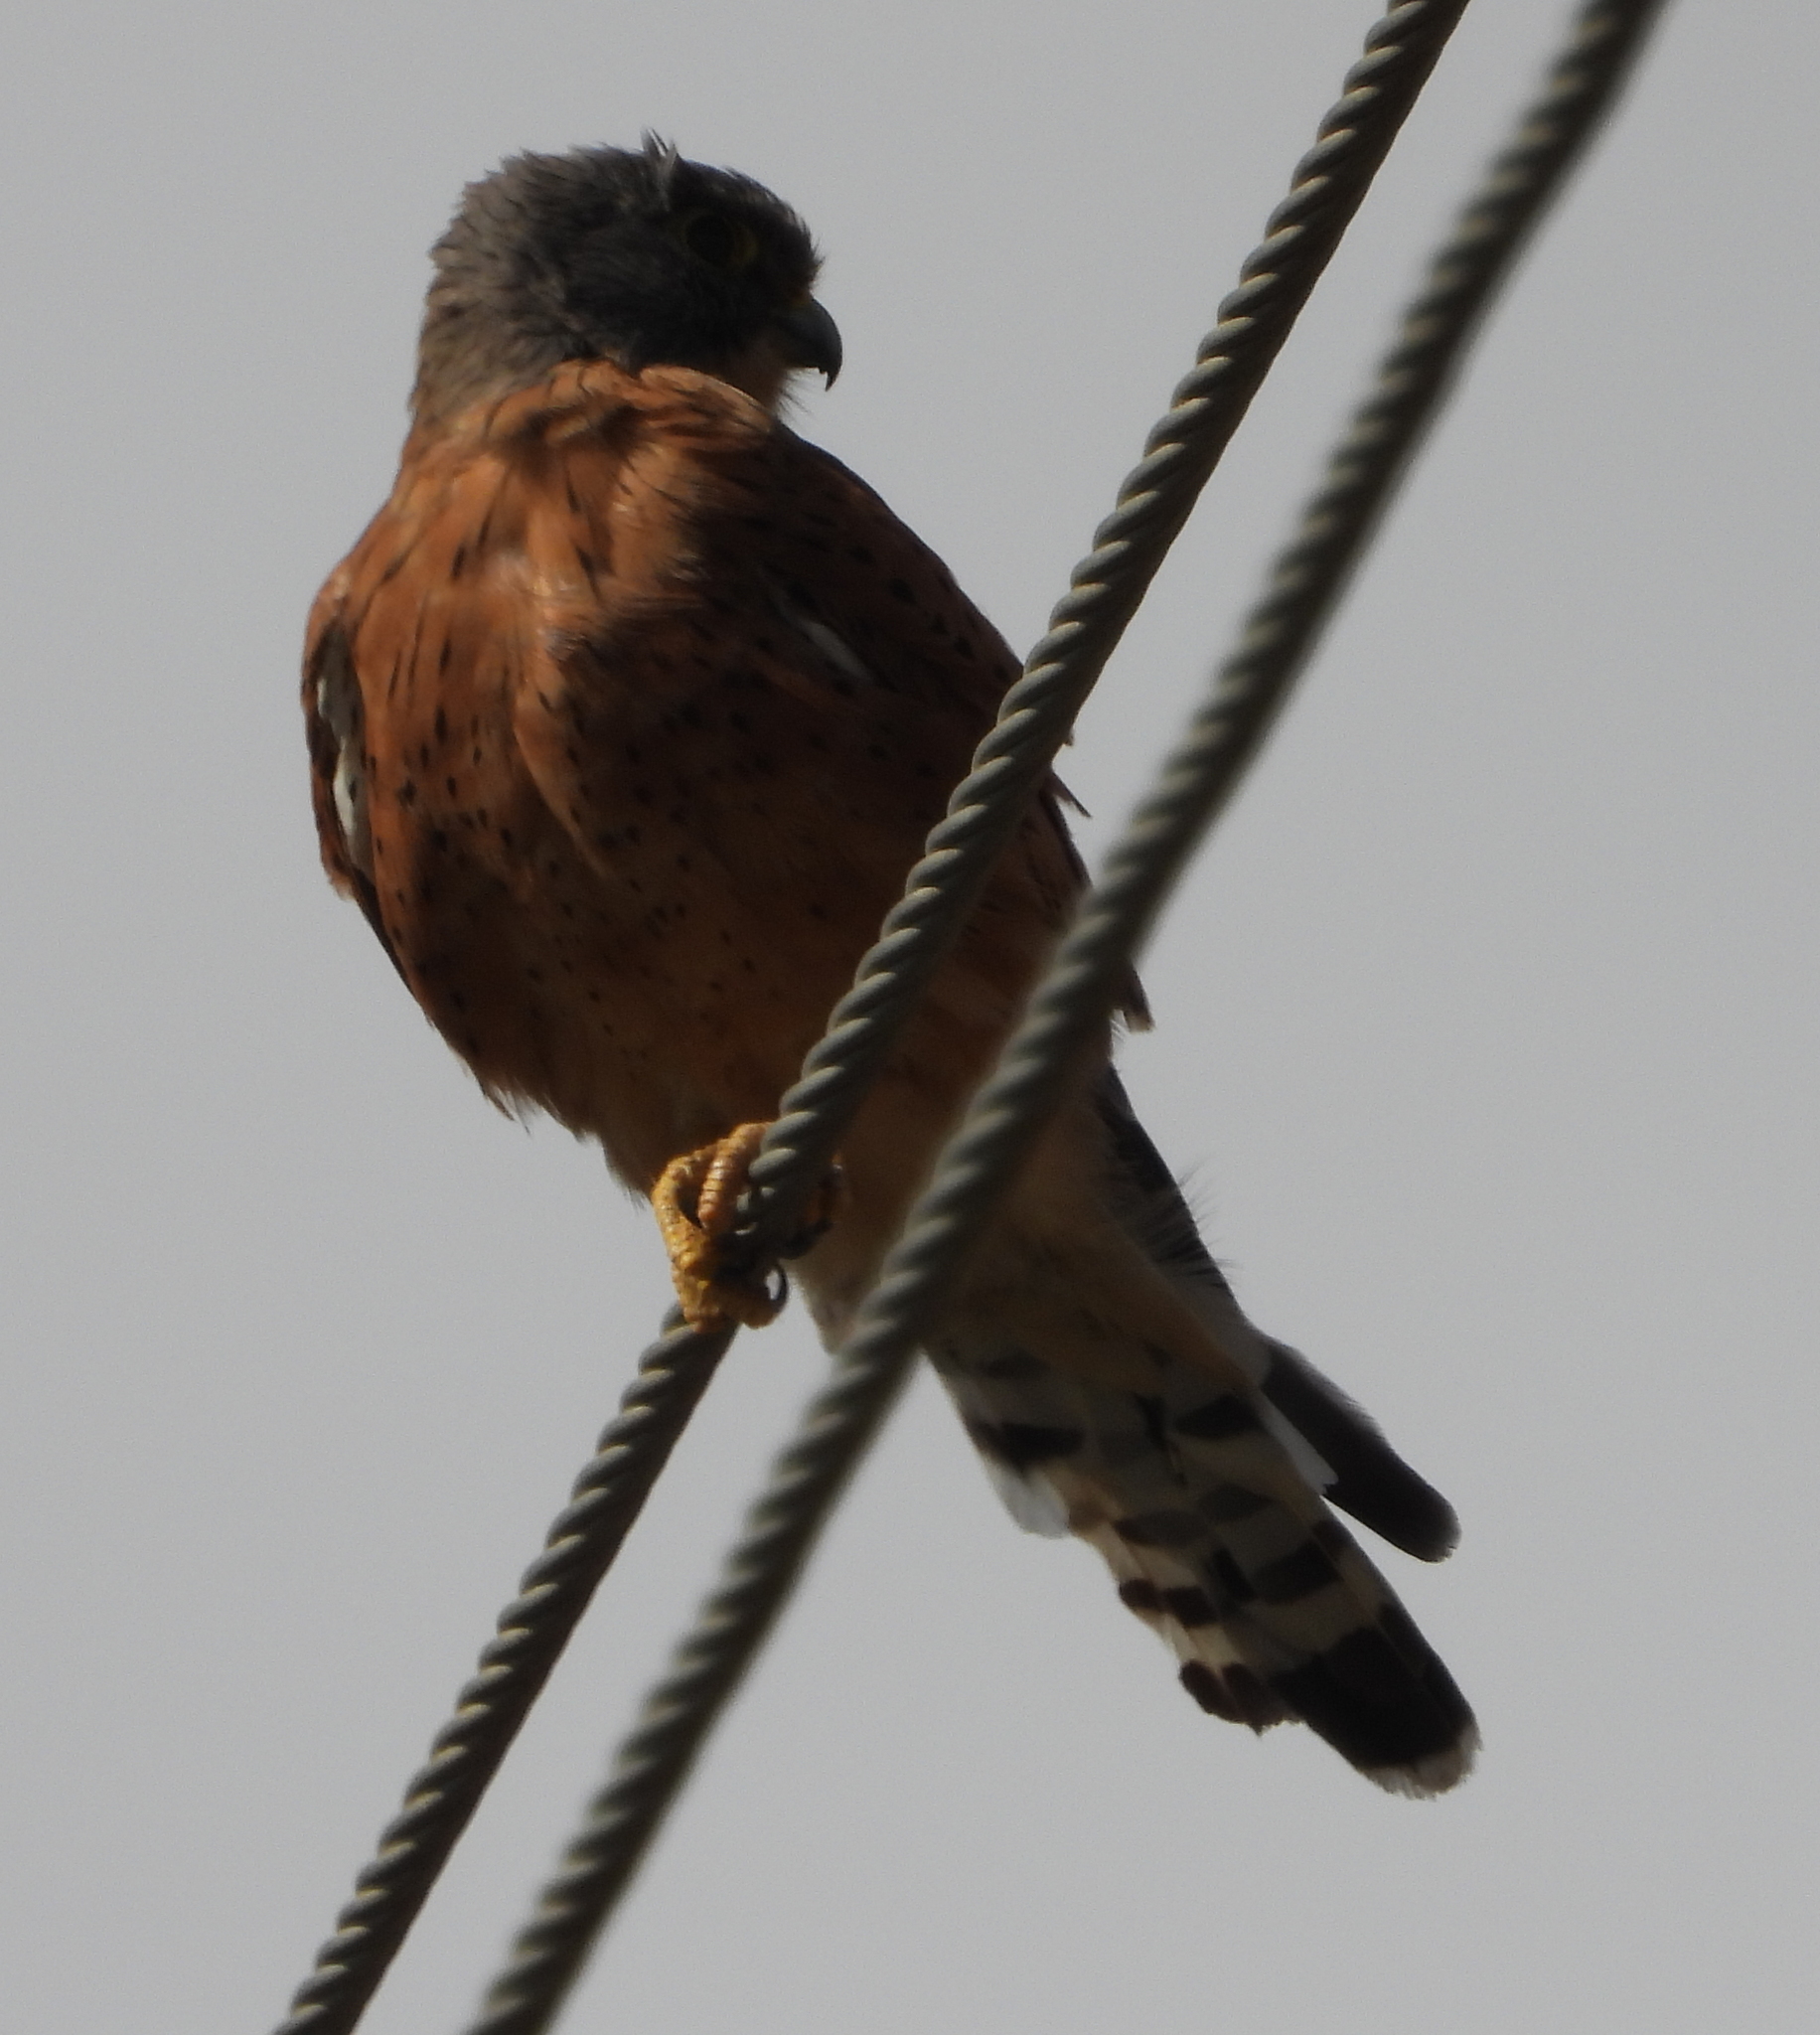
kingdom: Animalia
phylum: Chordata
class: Aves
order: Falconiformes
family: Falconidae
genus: Falco
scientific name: Falco rupicolus
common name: Rock kestrel
